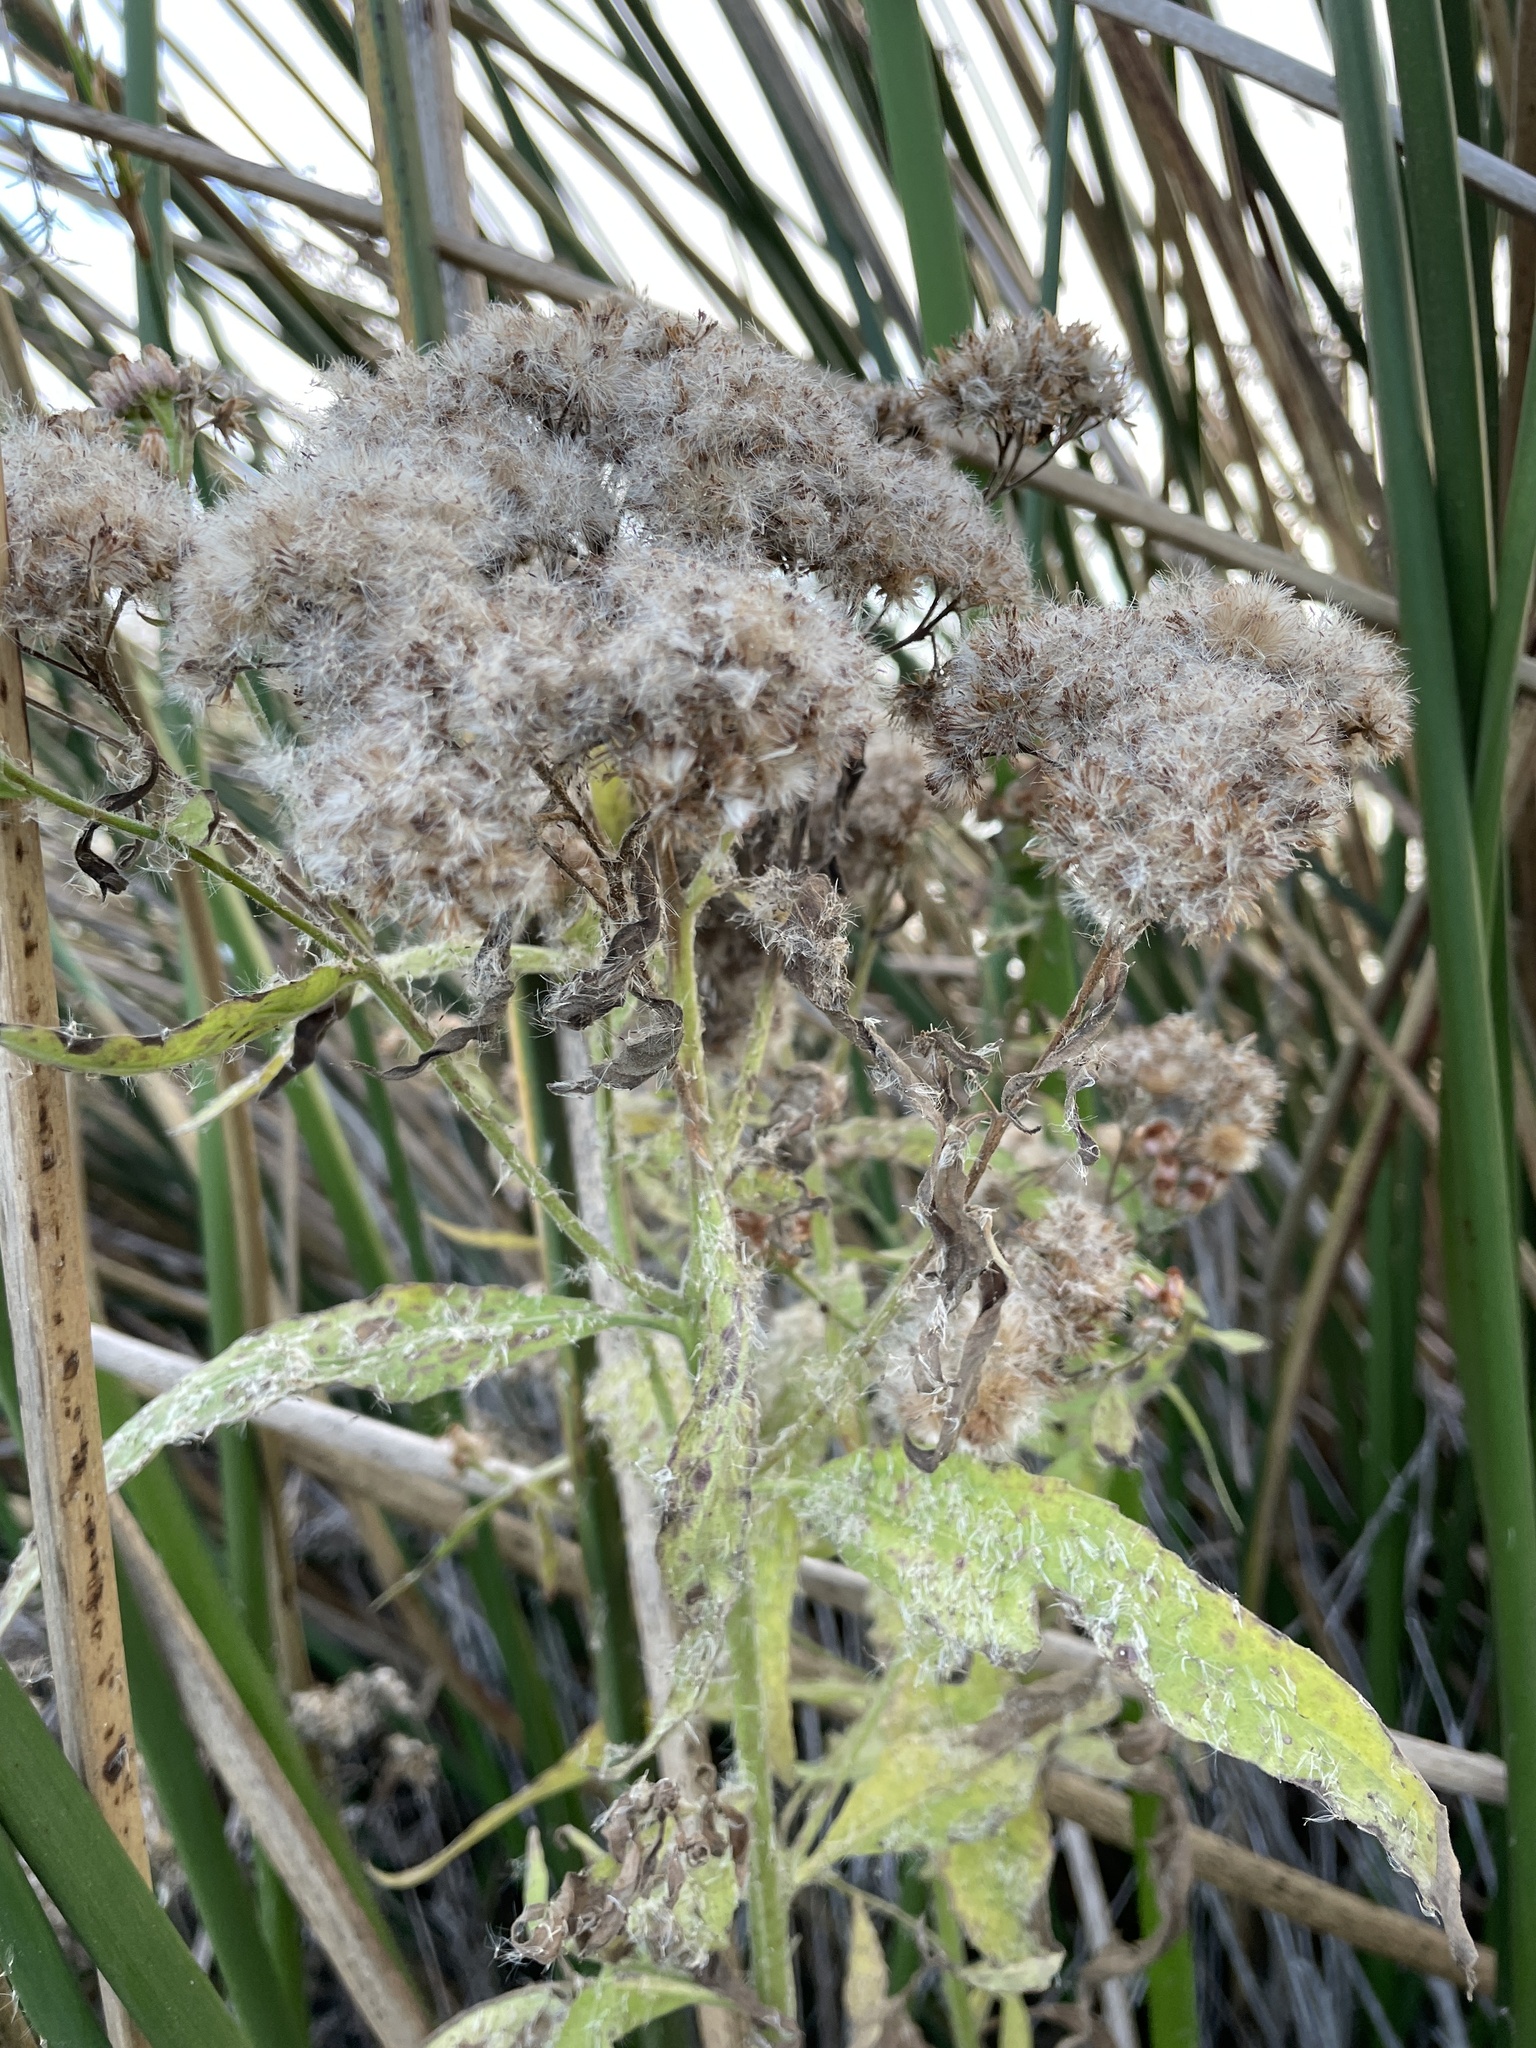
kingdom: Plantae
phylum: Tracheophyta
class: Magnoliopsida
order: Asterales
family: Asteraceae
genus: Pluchea
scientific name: Pluchea odorata
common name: Saltmarsh fleabane
